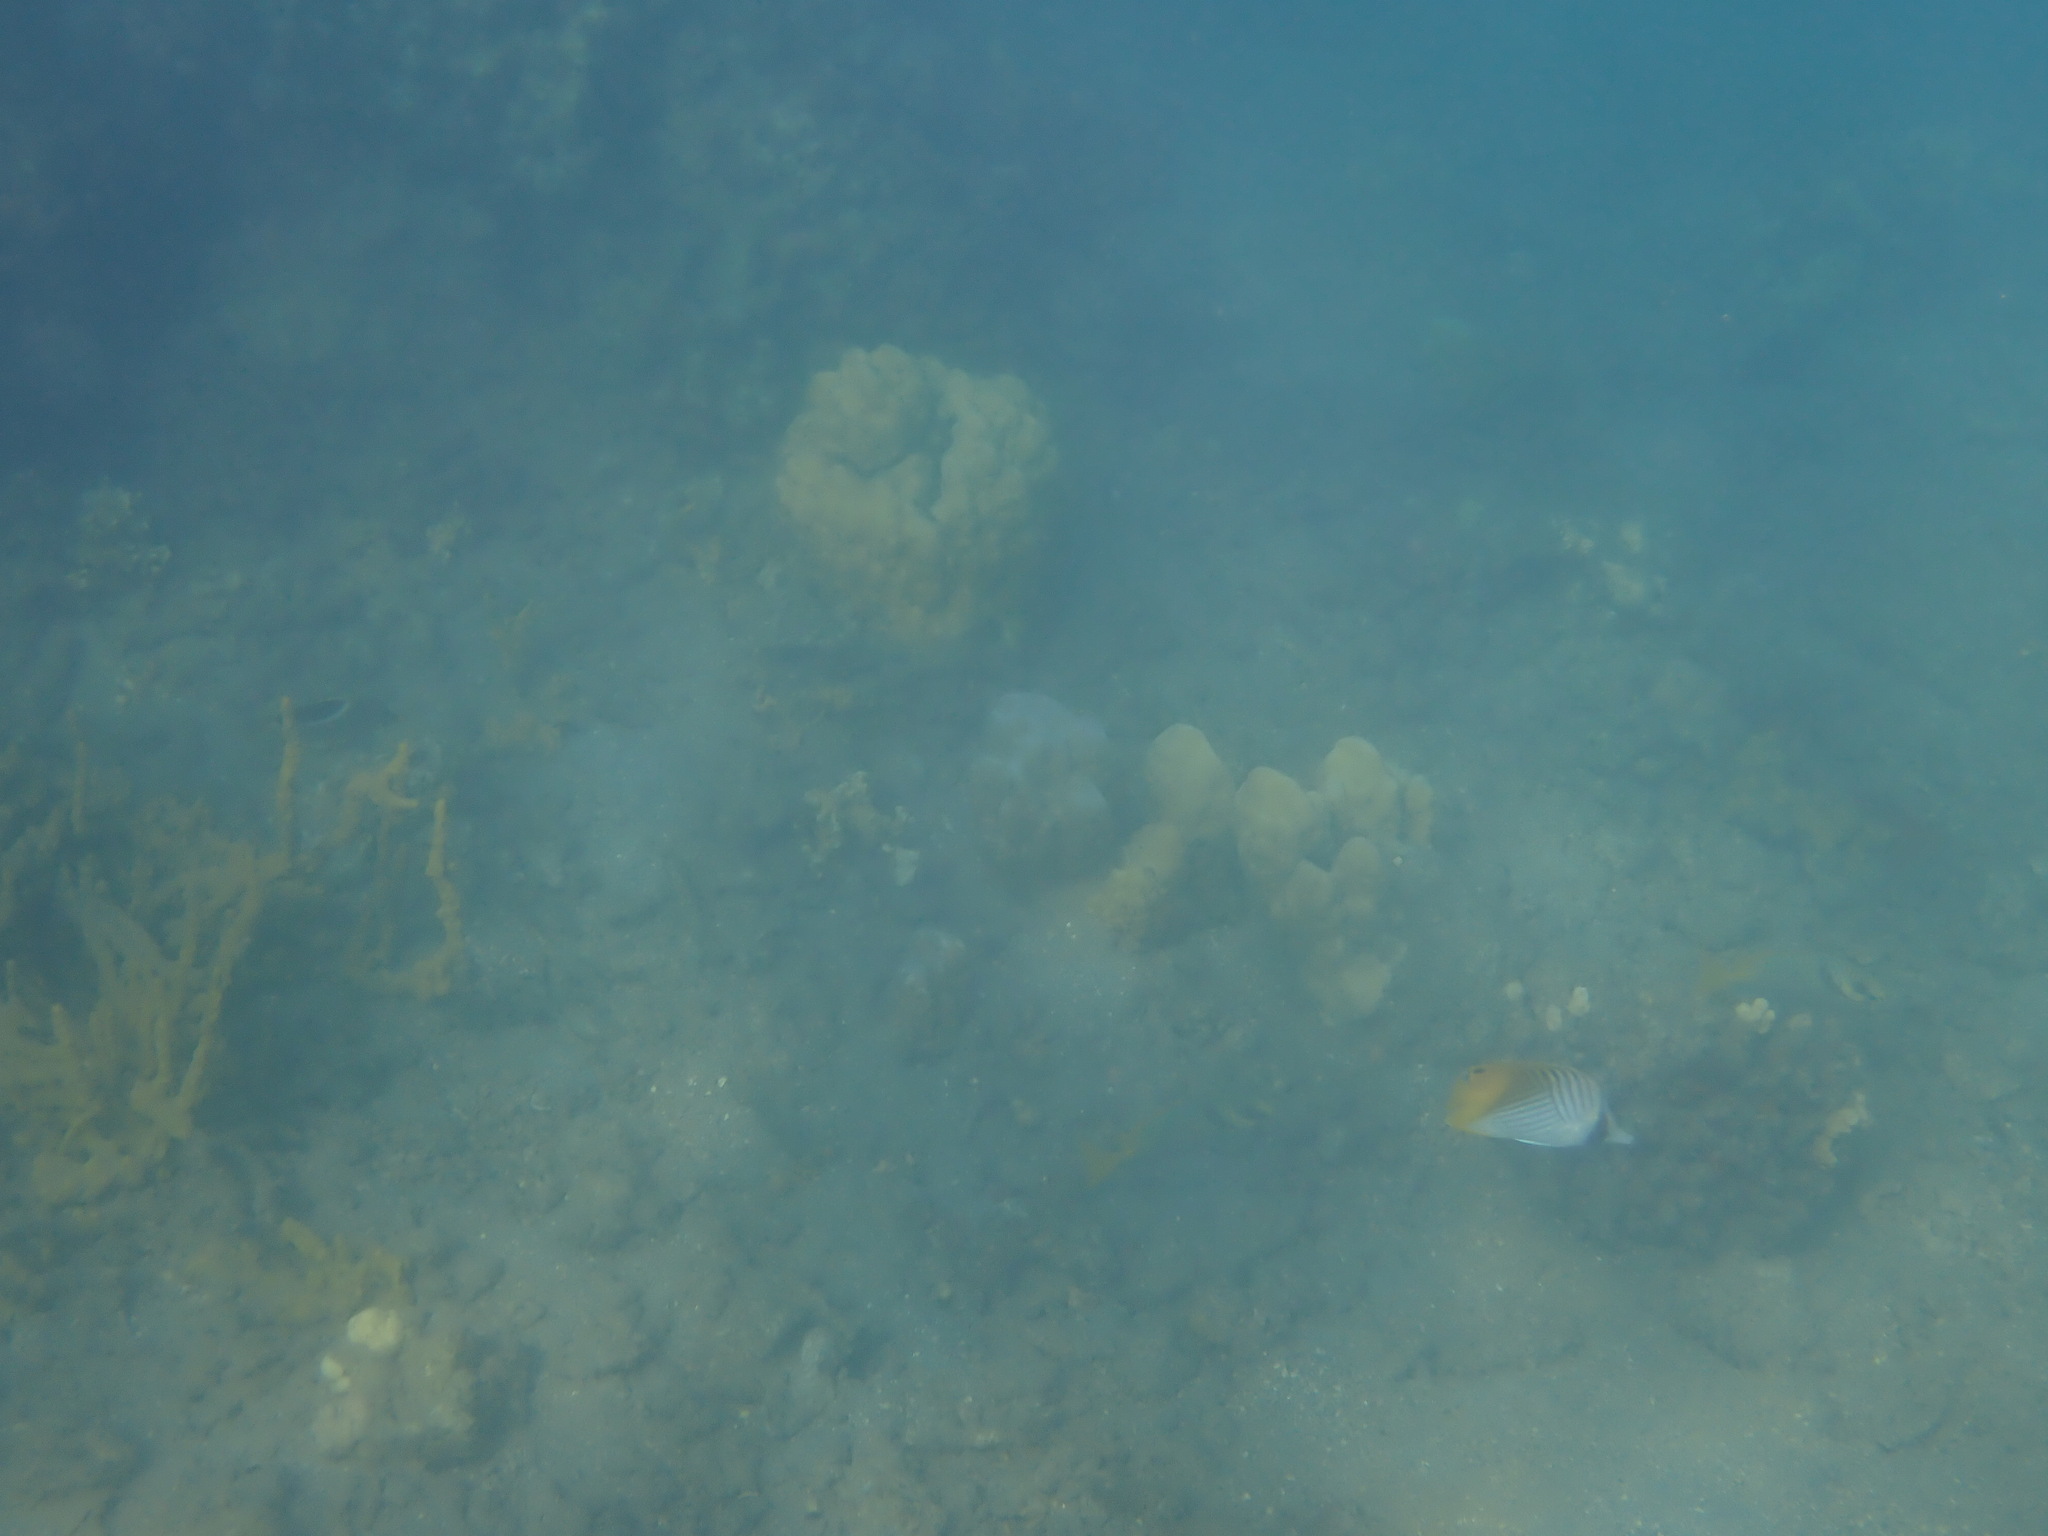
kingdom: Animalia
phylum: Chordata
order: Perciformes
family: Chaetodontidae
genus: Chaetodon
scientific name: Chaetodon auriga
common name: Threadfin butterflyfish
